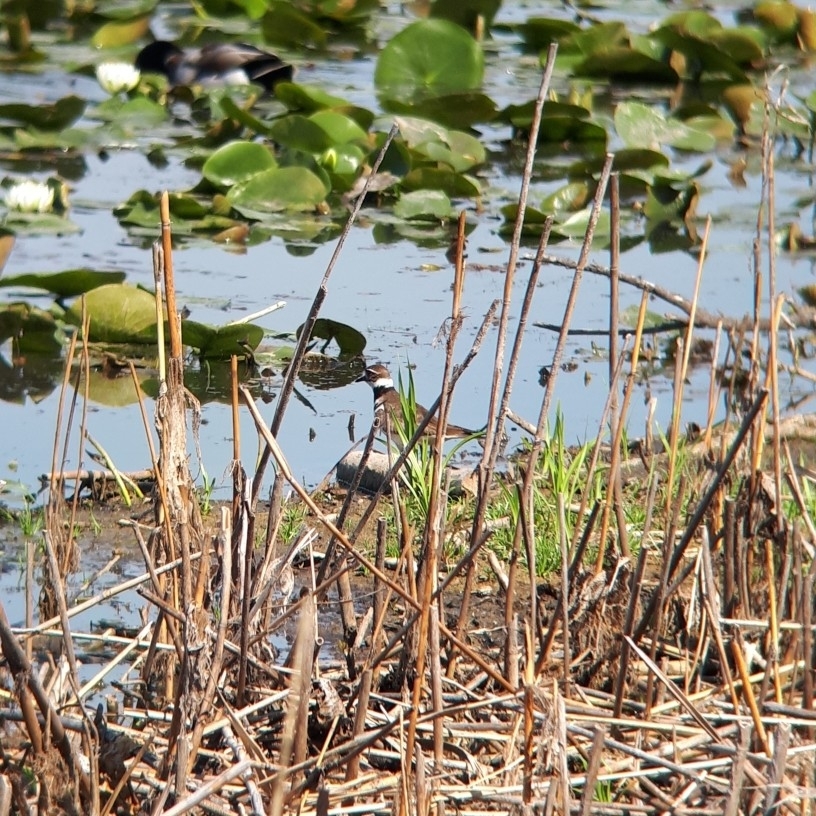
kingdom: Animalia
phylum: Chordata
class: Aves
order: Charadriiformes
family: Charadriidae
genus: Charadrius
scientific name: Charadrius vociferus
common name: Killdeer
